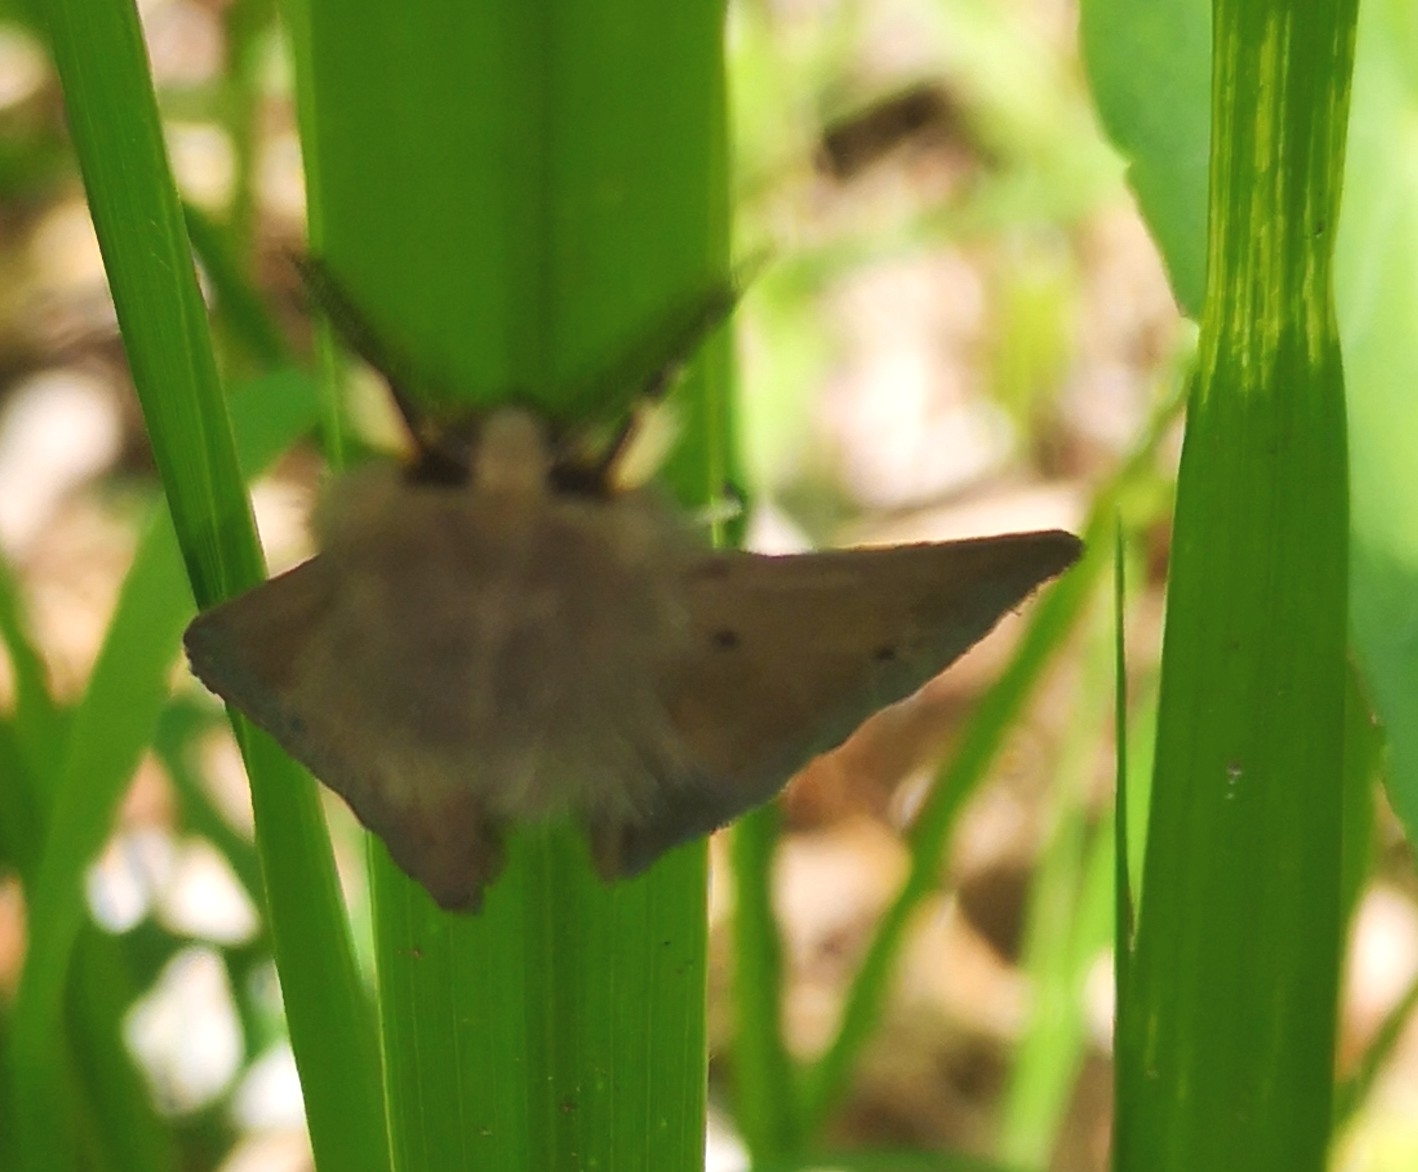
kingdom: Animalia
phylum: Arthropoda
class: Insecta
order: Lepidoptera
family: Erebidae
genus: Diaphora
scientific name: Diaphora mendica
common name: Muslin moth
